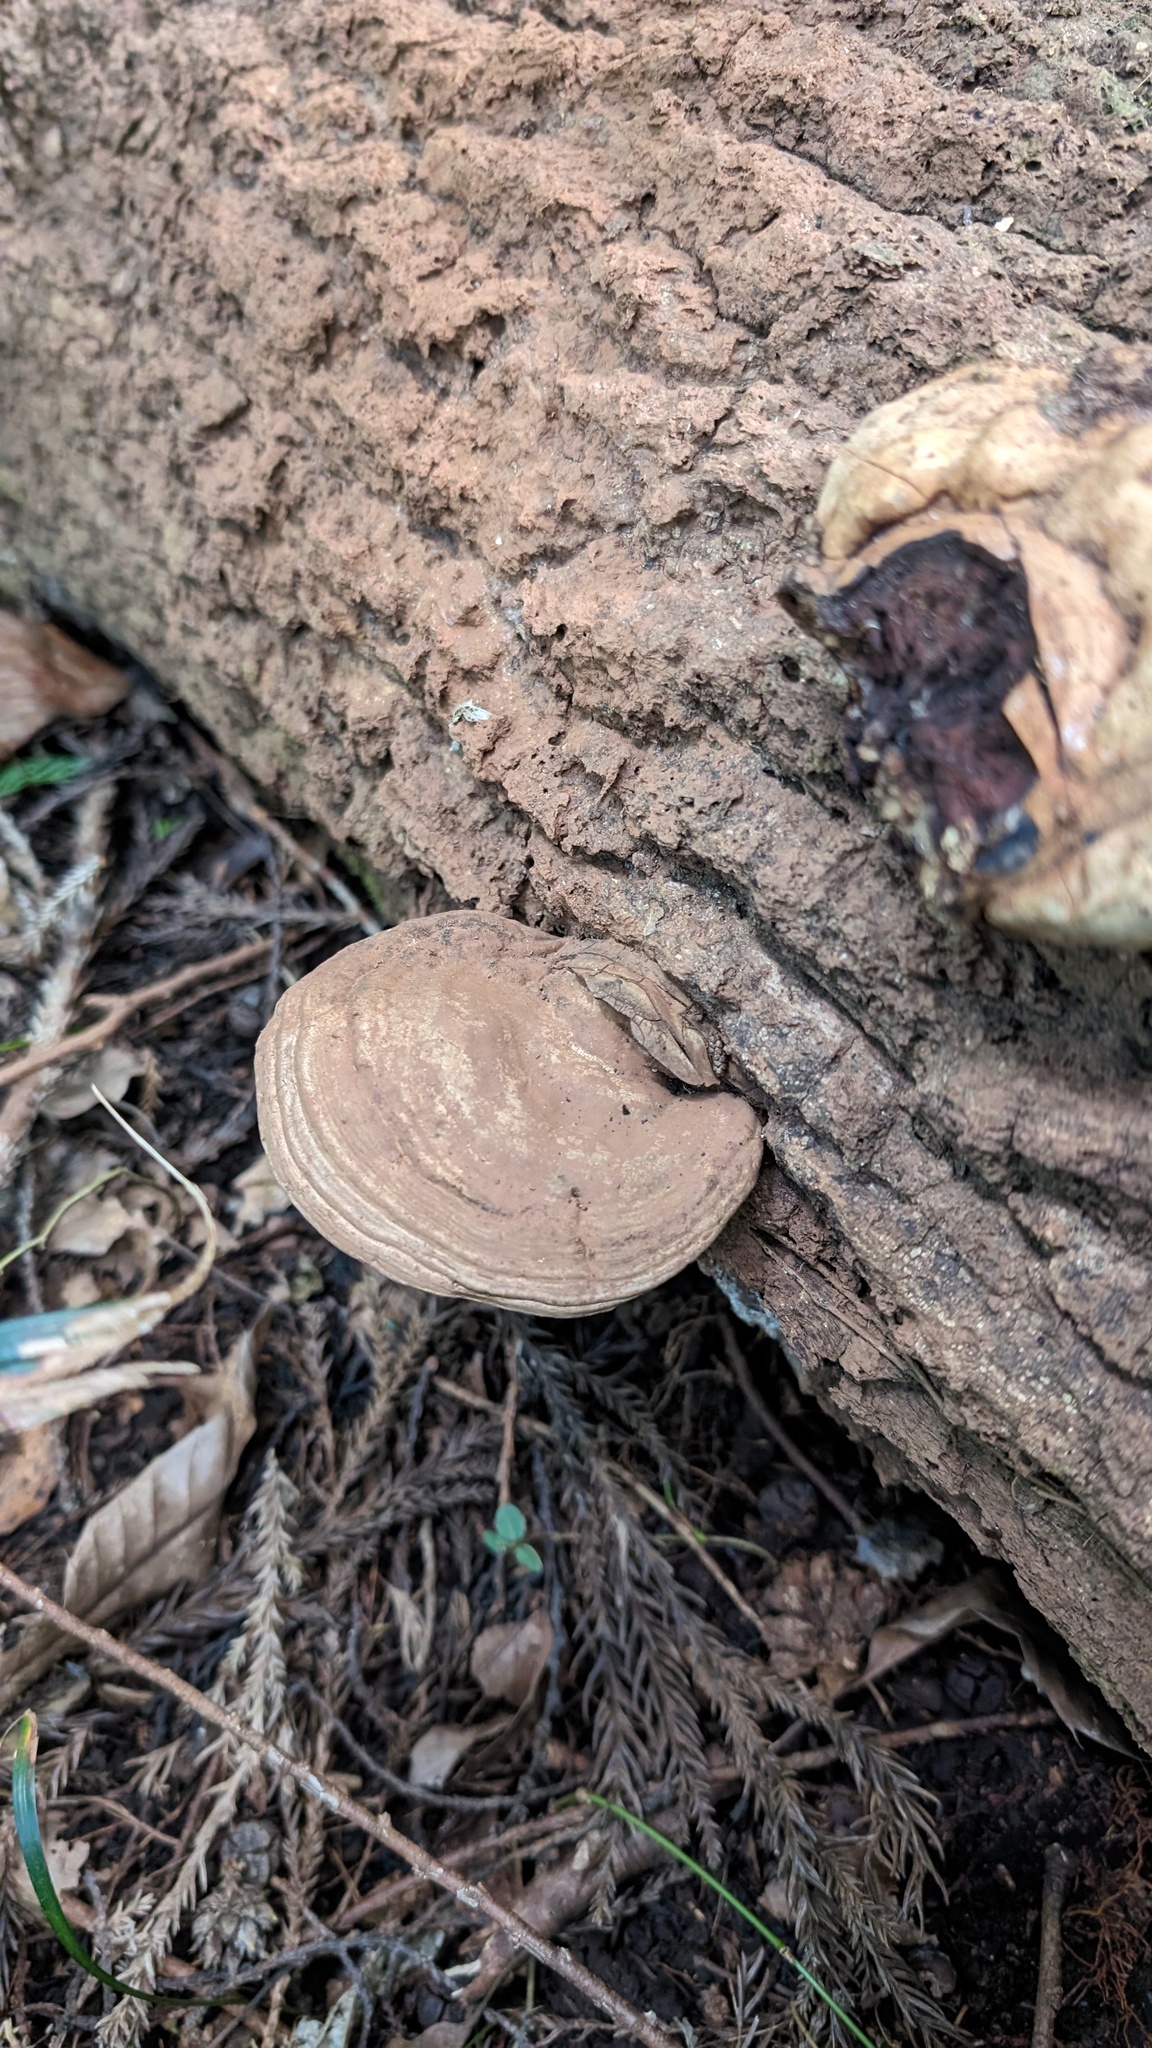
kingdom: Fungi
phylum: Basidiomycota
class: Agaricomycetes
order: Polyporales
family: Polyporaceae
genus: Ganoderma
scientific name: Ganoderma applanatum
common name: Artist's bracket
